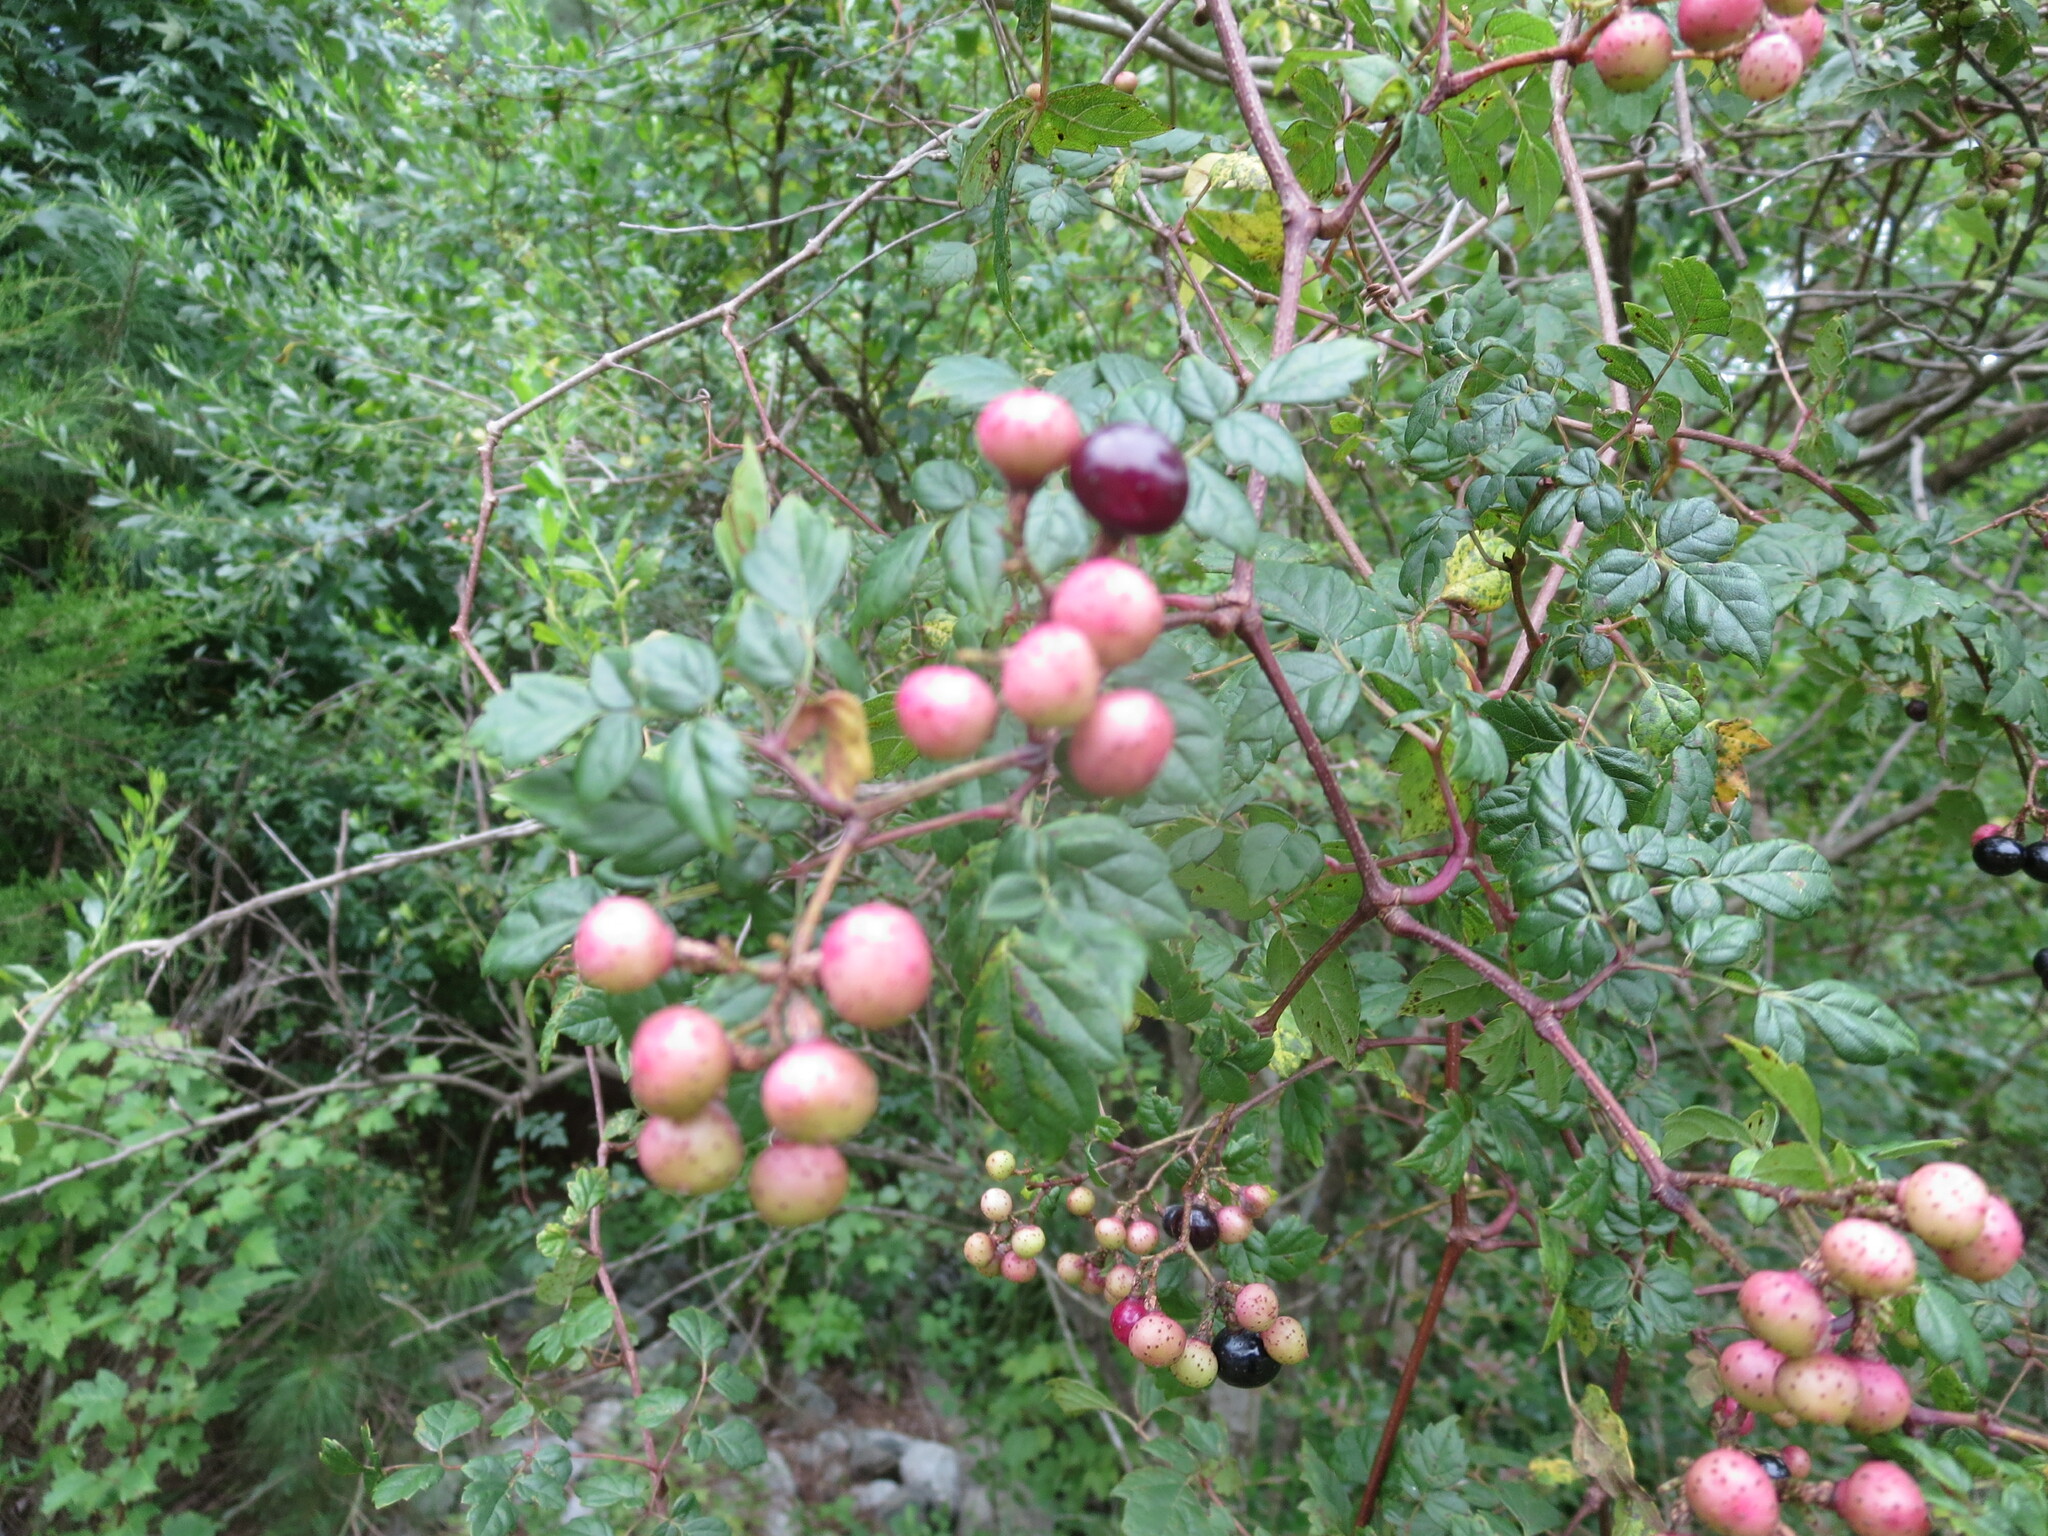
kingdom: Plantae
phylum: Tracheophyta
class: Magnoliopsida
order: Vitales
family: Vitaceae
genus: Nekemias
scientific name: Nekemias arborea
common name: Peppervine
